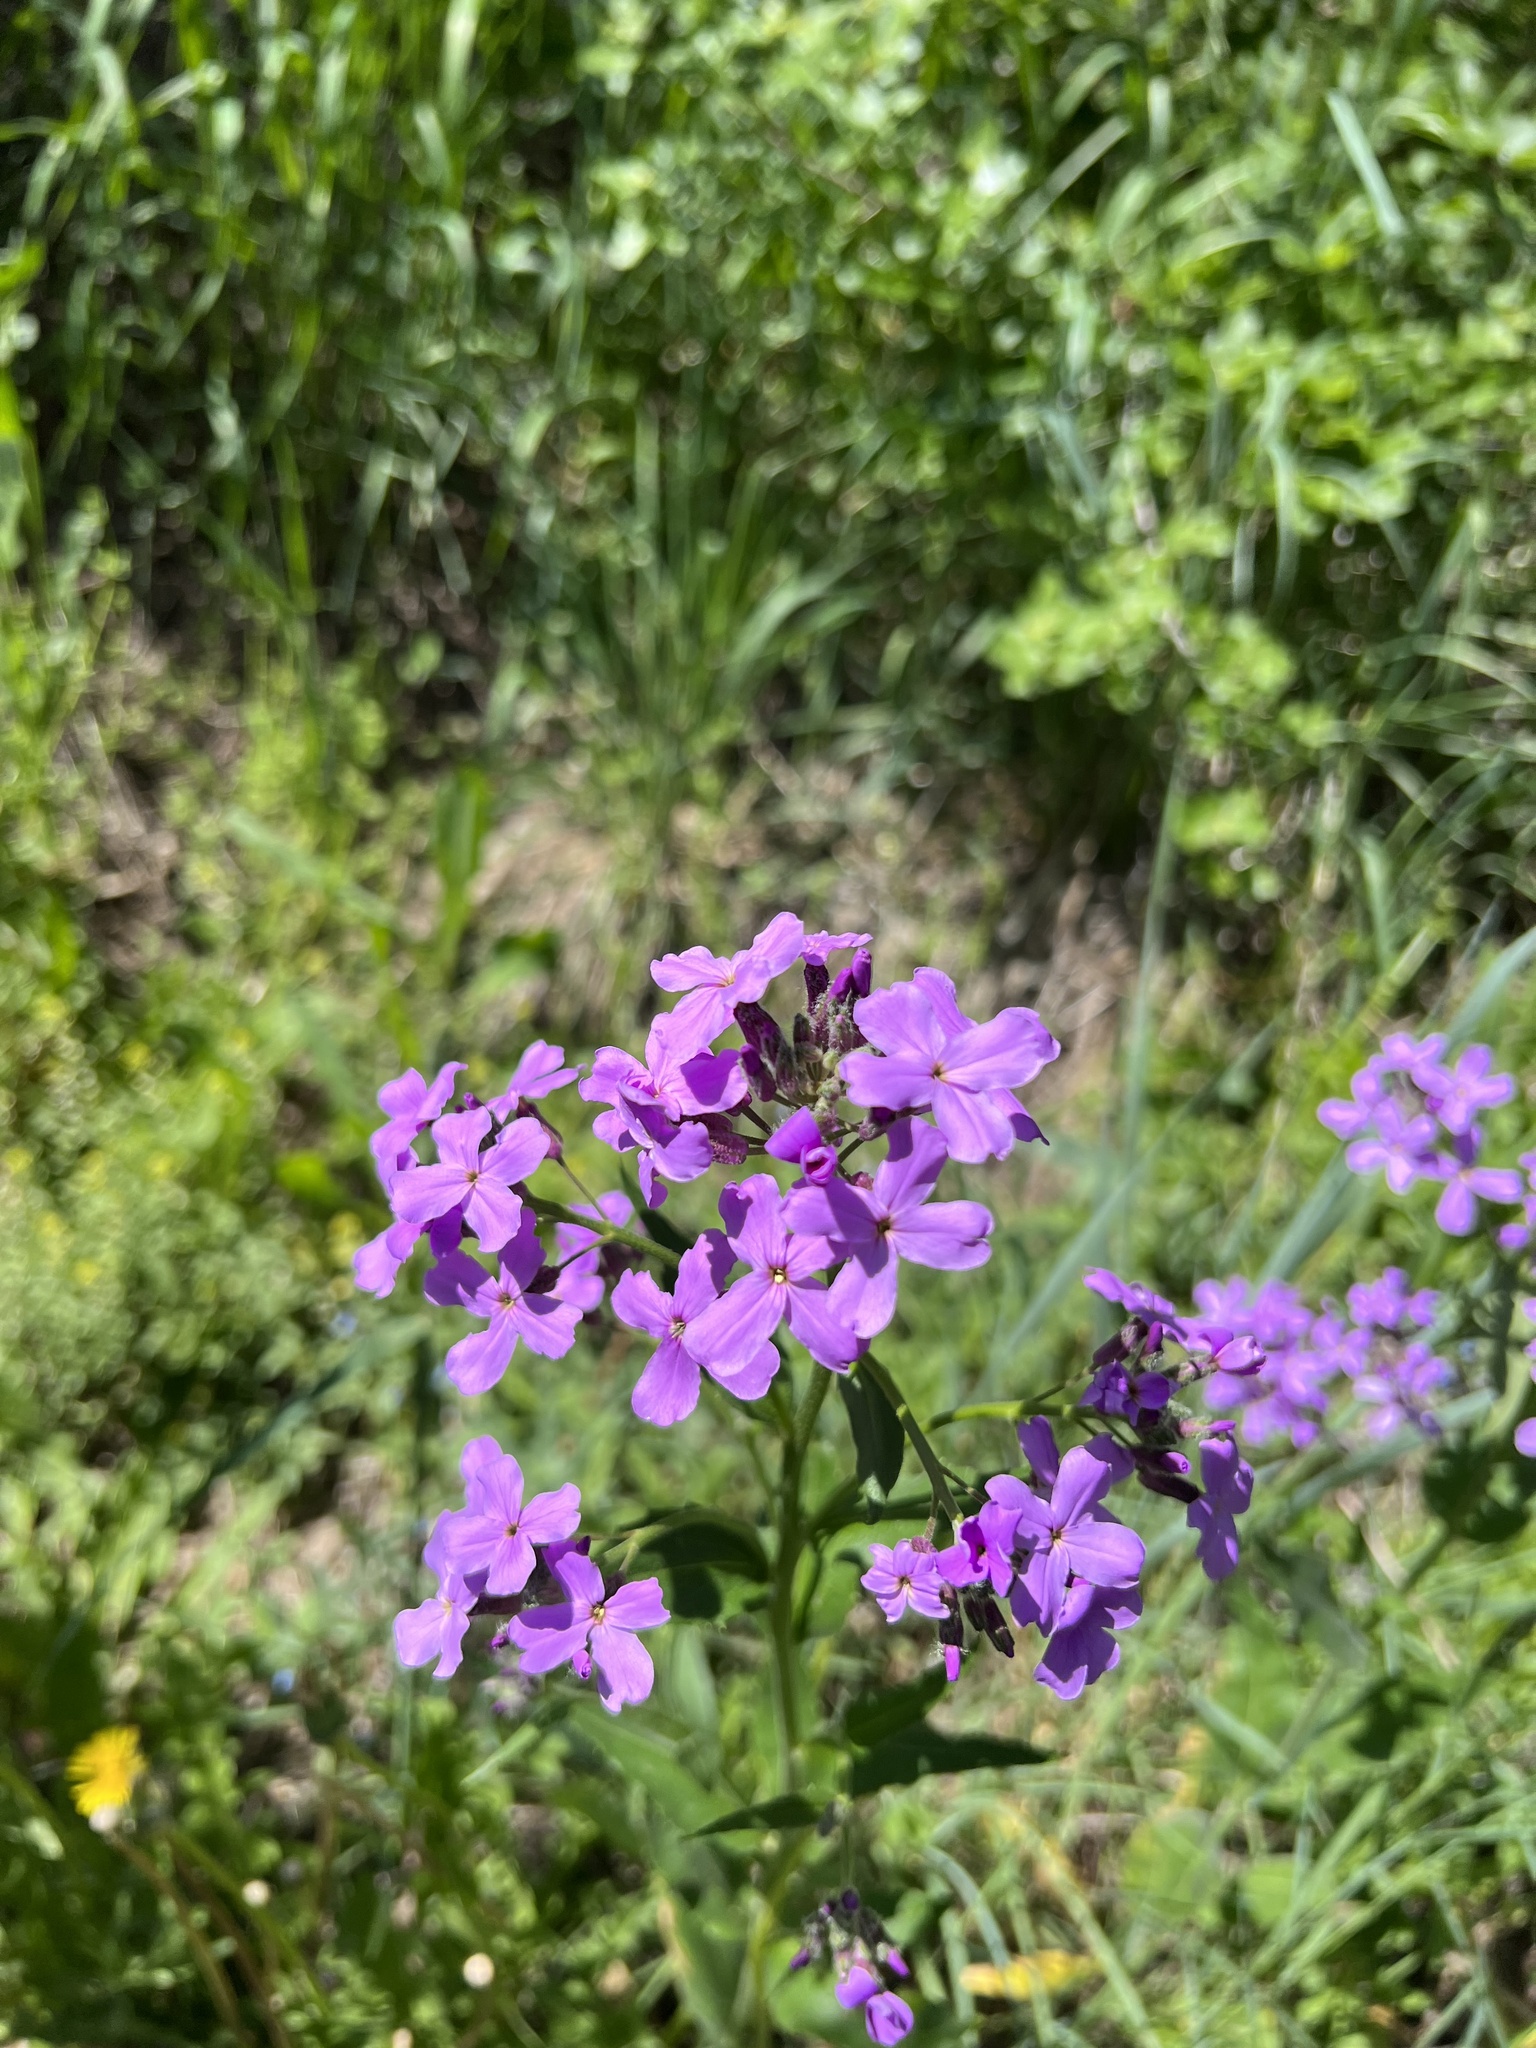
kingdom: Plantae
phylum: Tracheophyta
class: Magnoliopsida
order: Brassicales
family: Brassicaceae
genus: Hesperis
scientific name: Hesperis matronalis
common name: Dame's-violet
